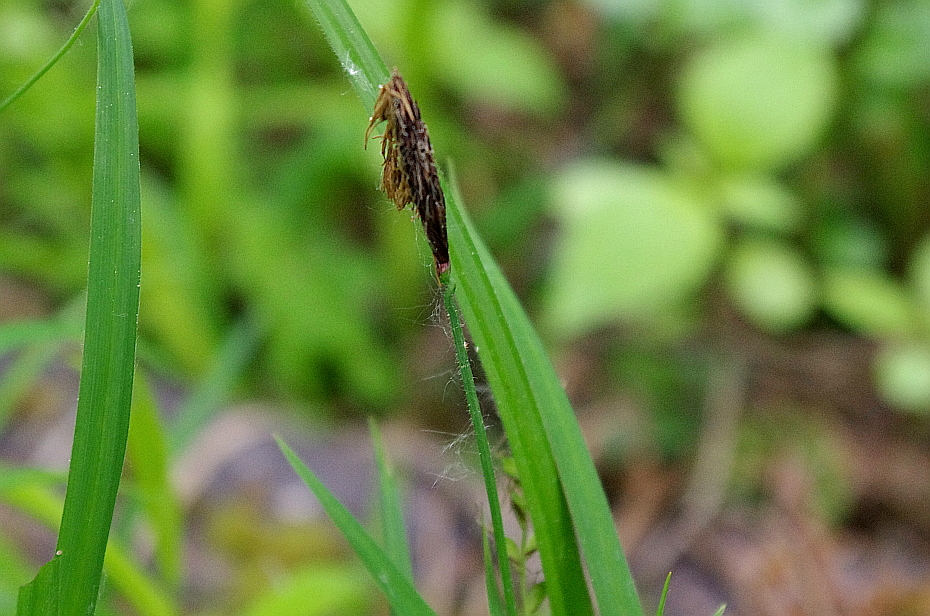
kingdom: Plantae
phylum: Tracheophyta
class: Liliopsida
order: Poales
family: Cyperaceae
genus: Carex
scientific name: Carex pilosa
